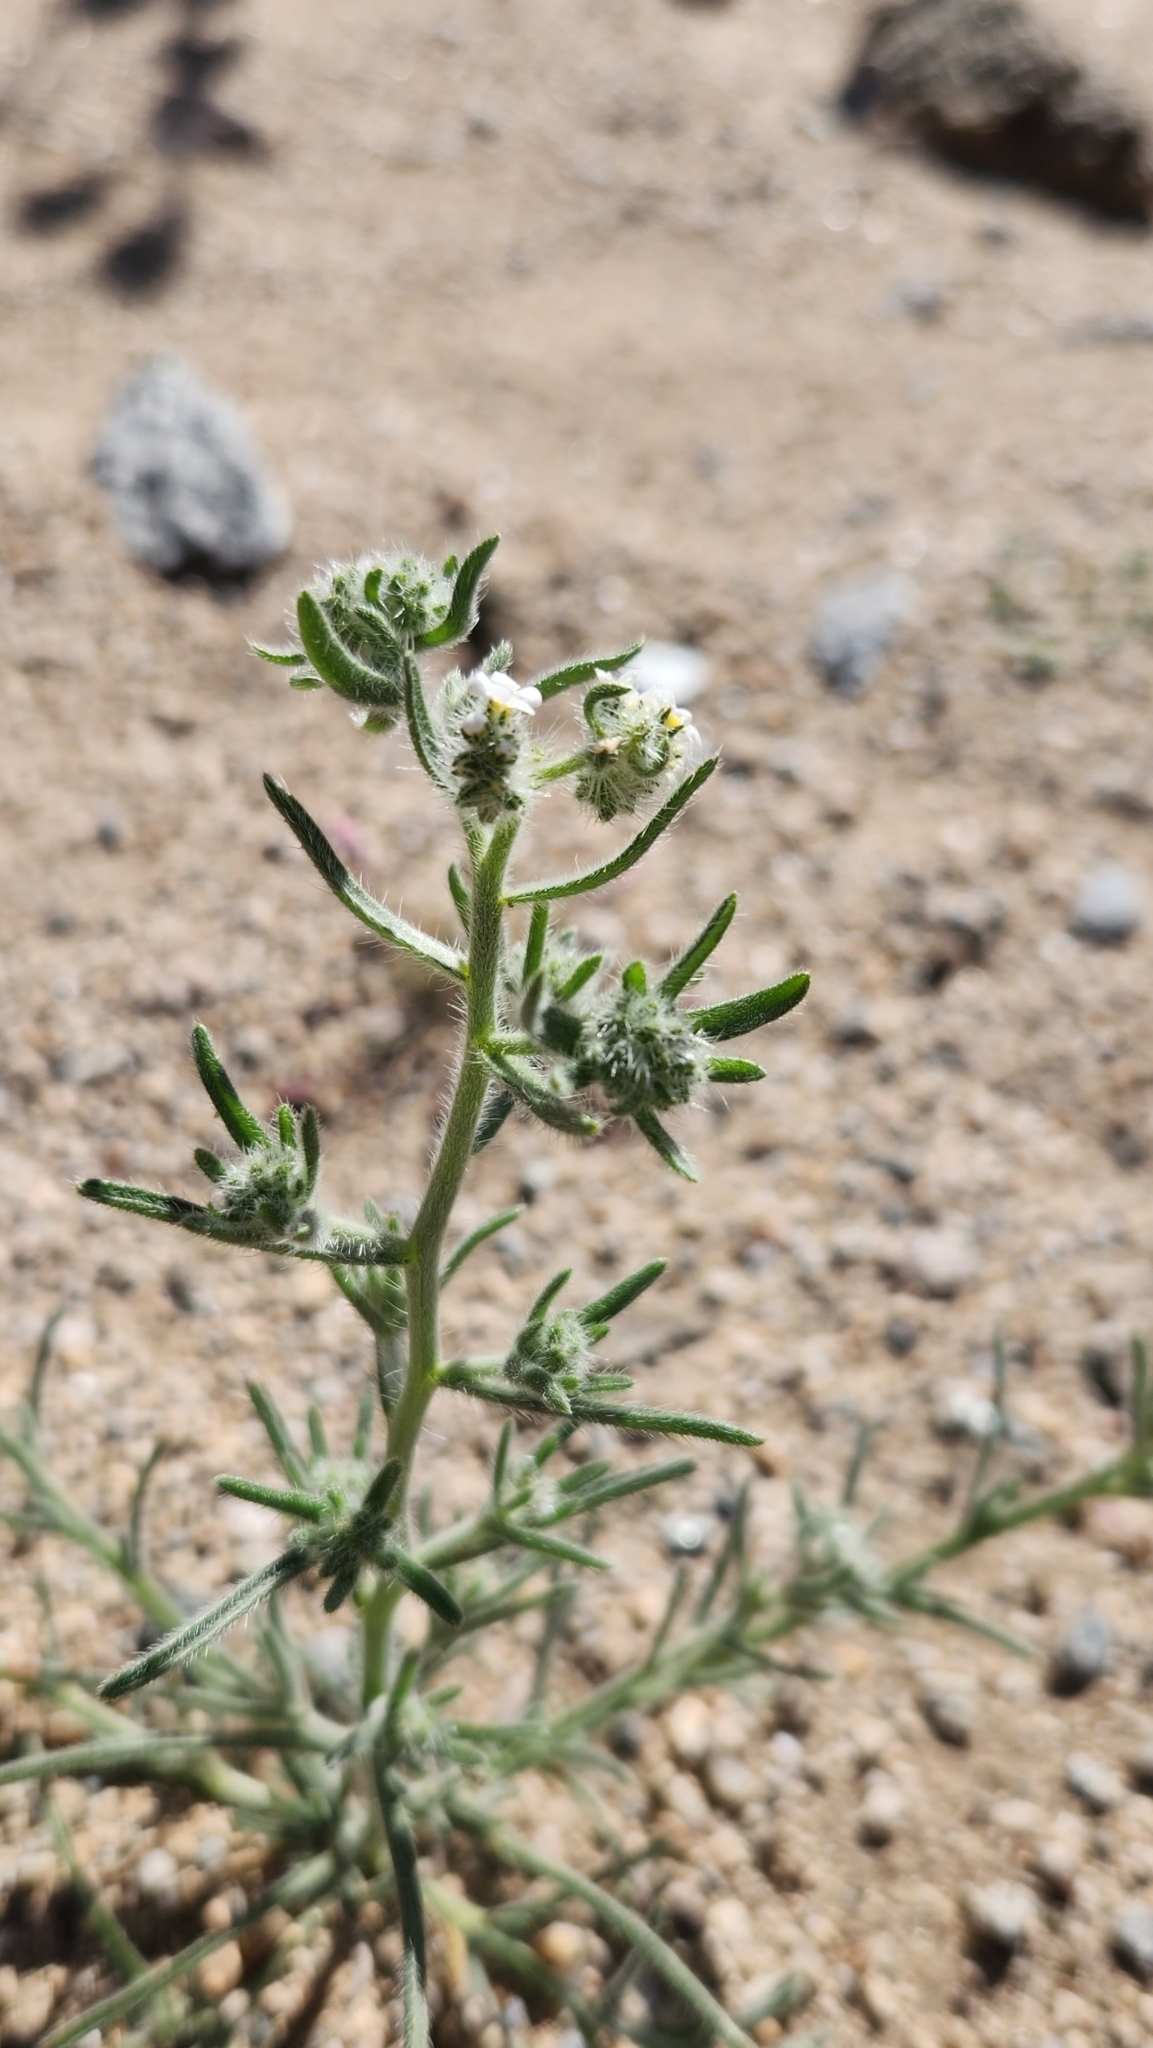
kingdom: Plantae
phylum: Tracheophyta
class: Magnoliopsida
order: Boraginales
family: Boraginaceae
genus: Johnstonella
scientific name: Johnstonella angustifolia
